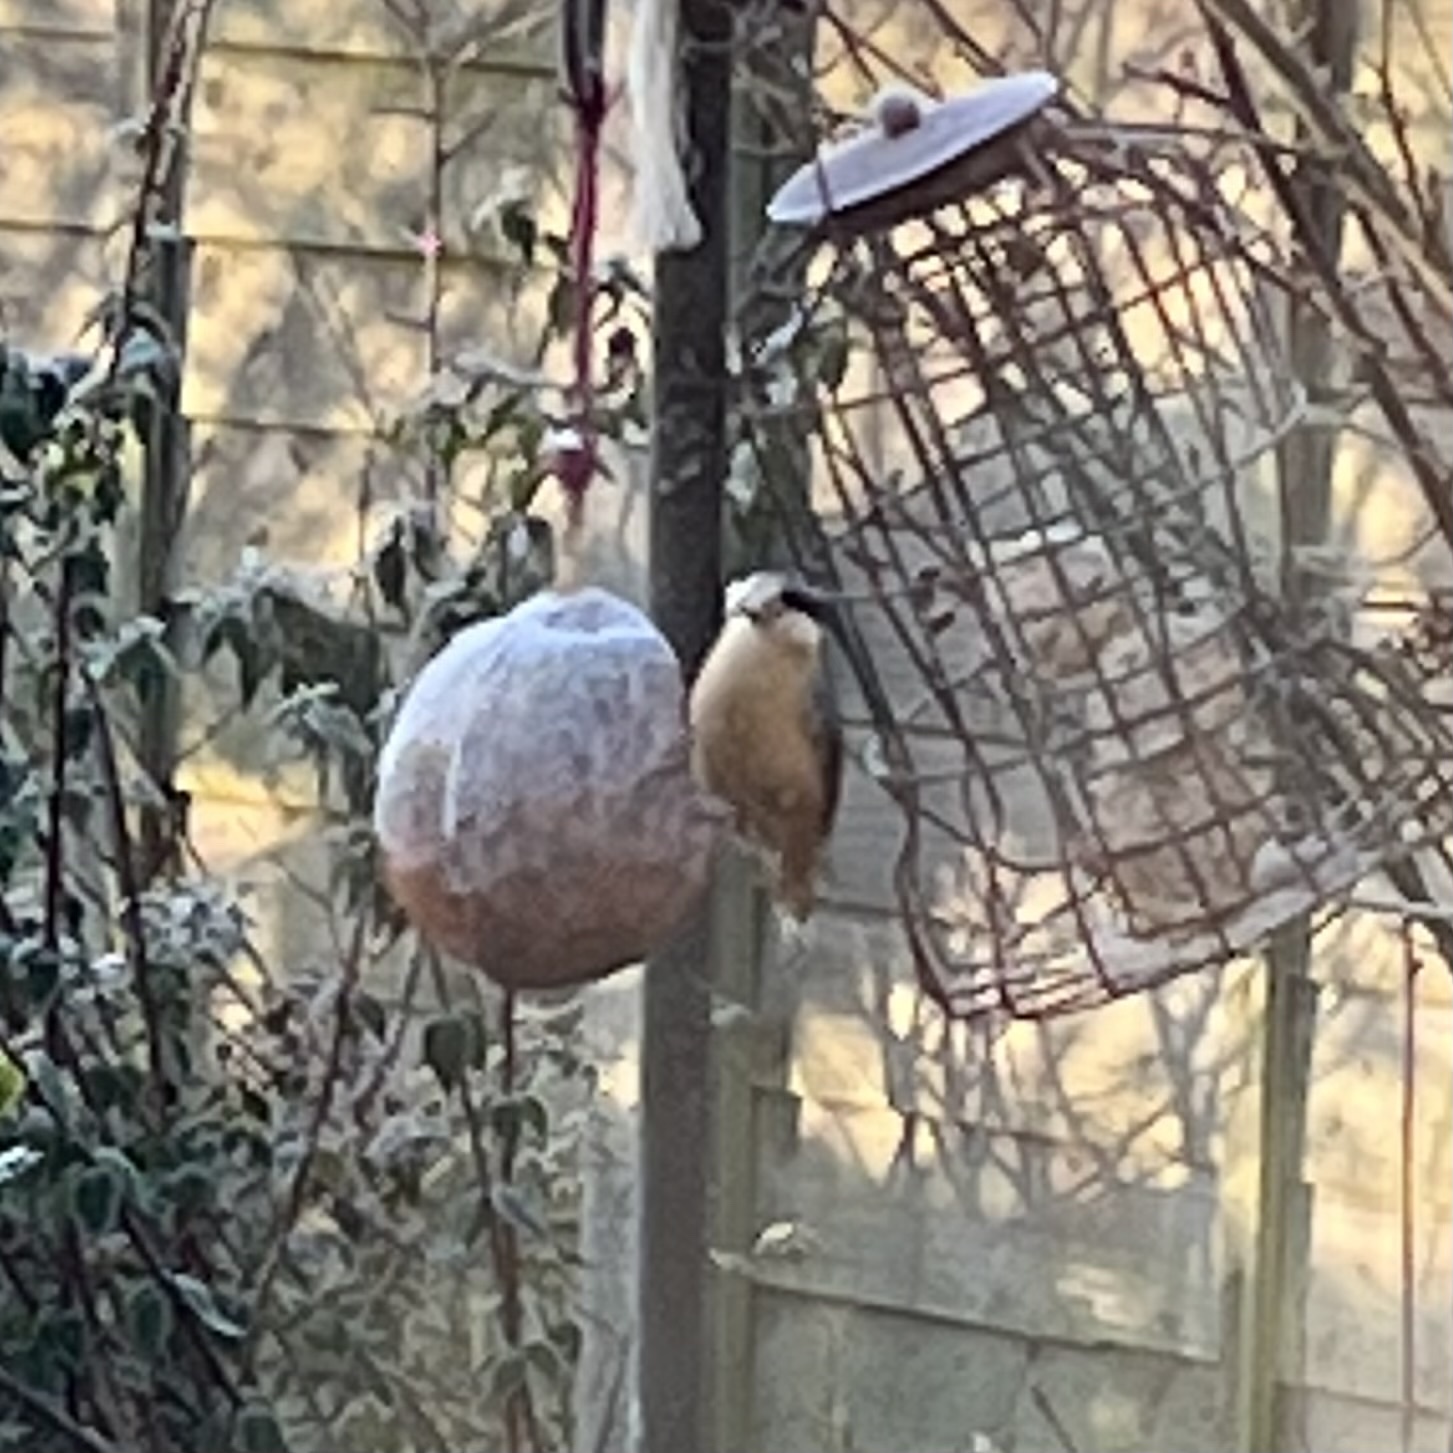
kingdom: Animalia
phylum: Chordata
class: Aves
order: Passeriformes
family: Sittidae
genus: Sitta
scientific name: Sitta europaea
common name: Eurasian nuthatch
